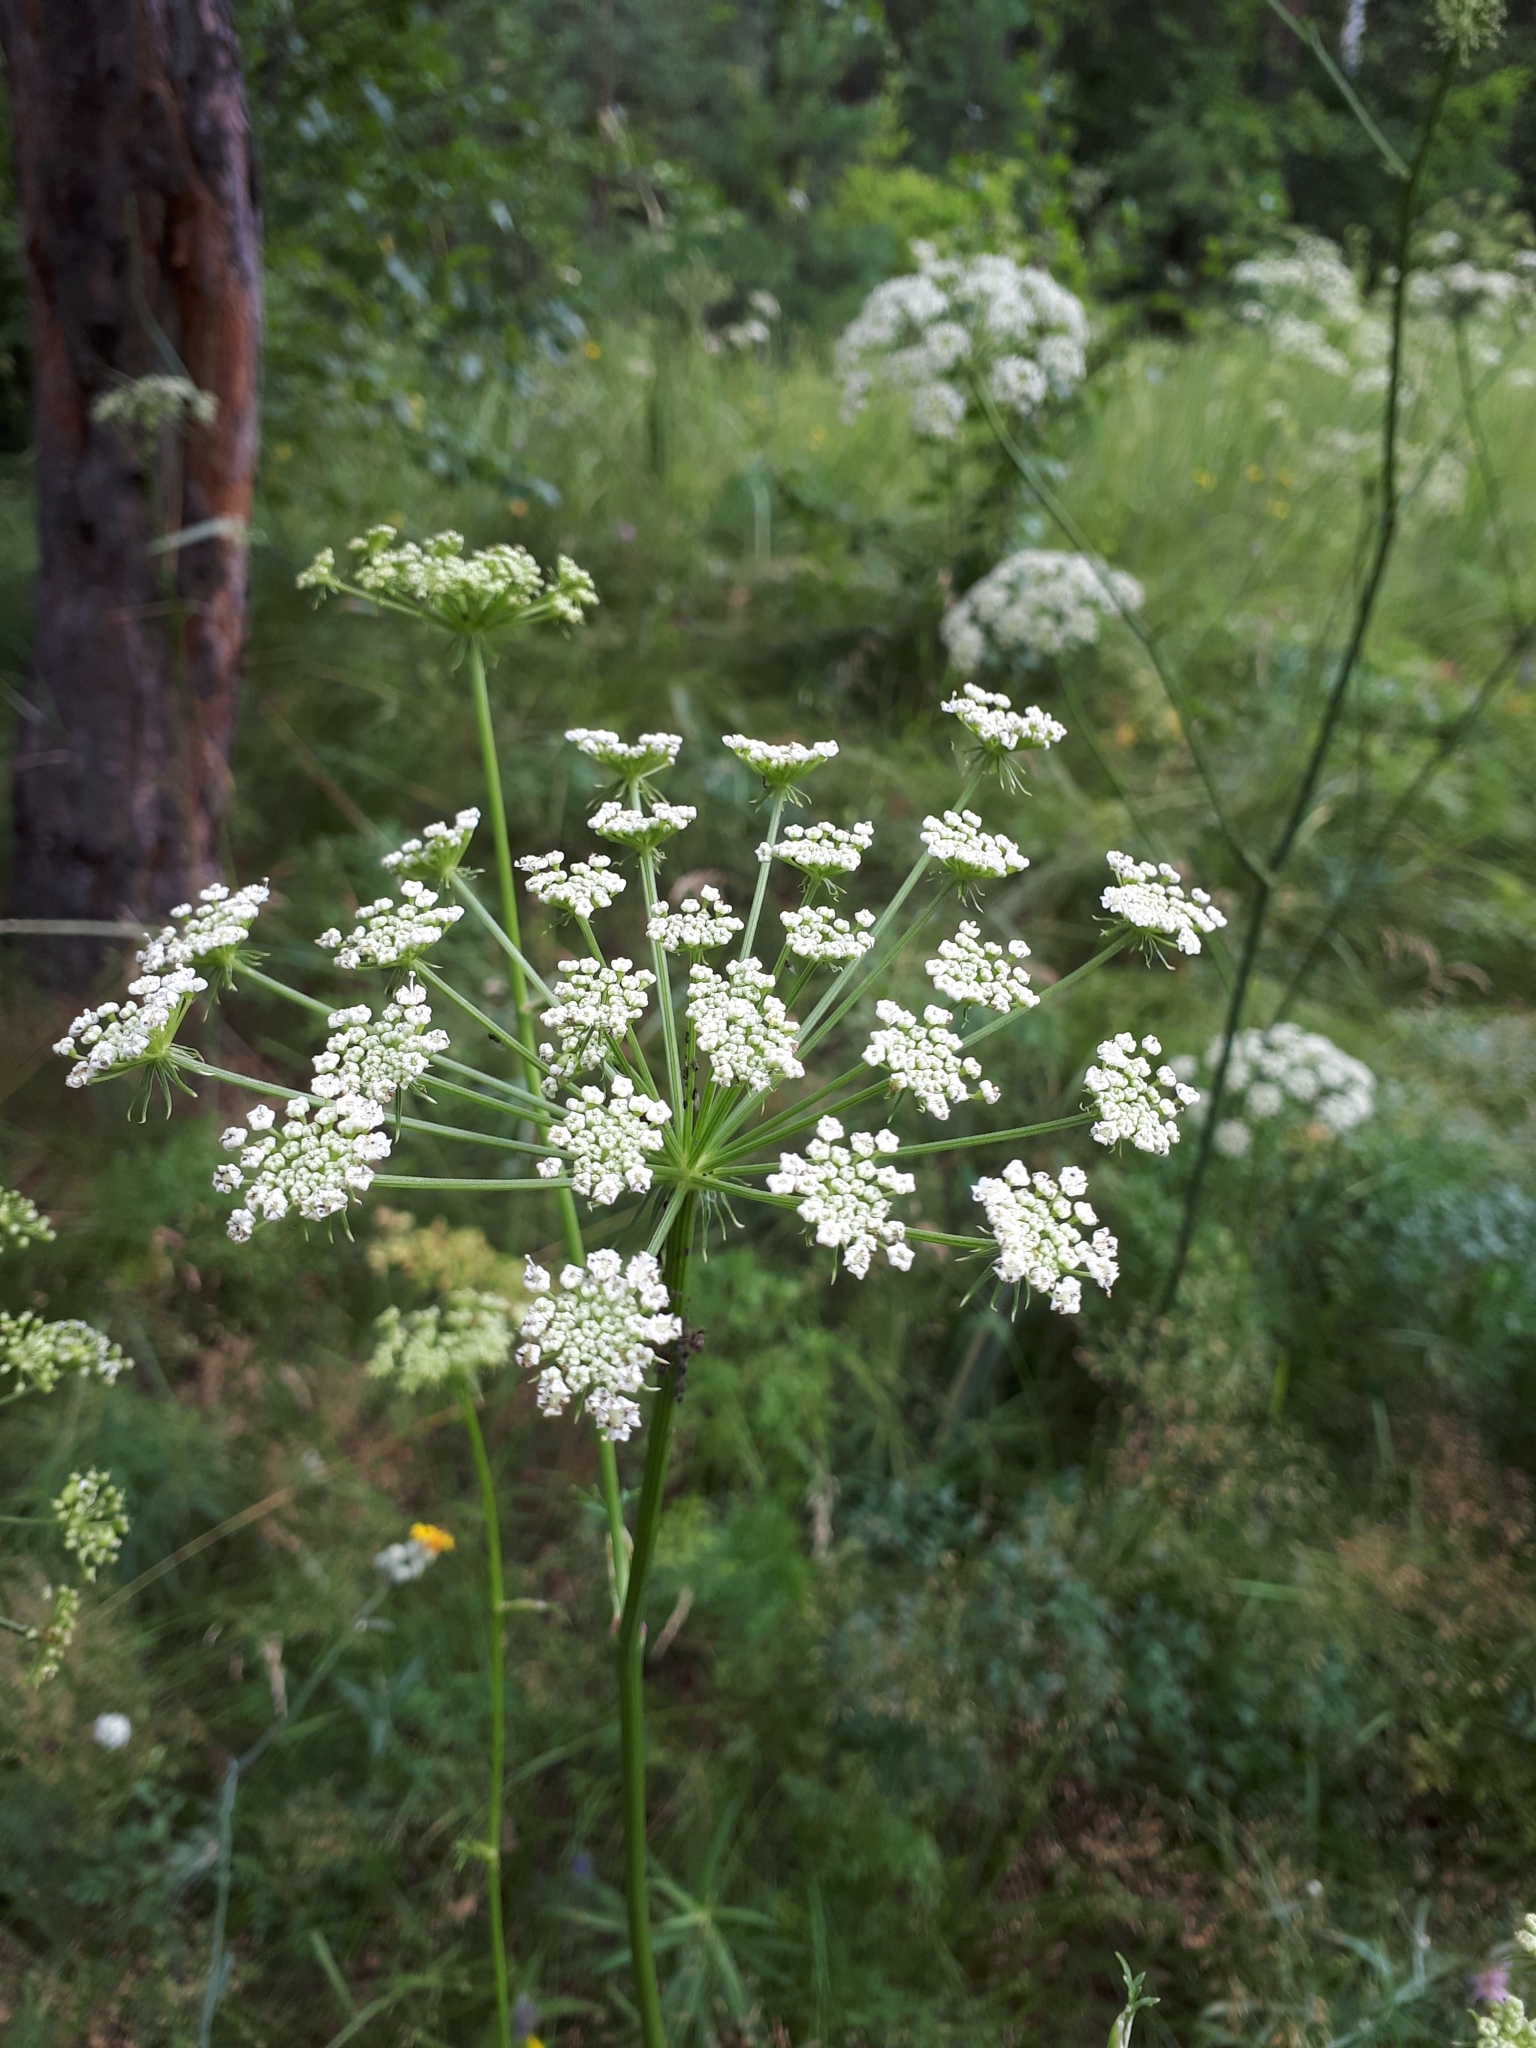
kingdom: Plantae
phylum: Tracheophyta
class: Magnoliopsida
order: Apiales
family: Apiaceae
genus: Oreoselinum
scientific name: Oreoselinum nigrum
